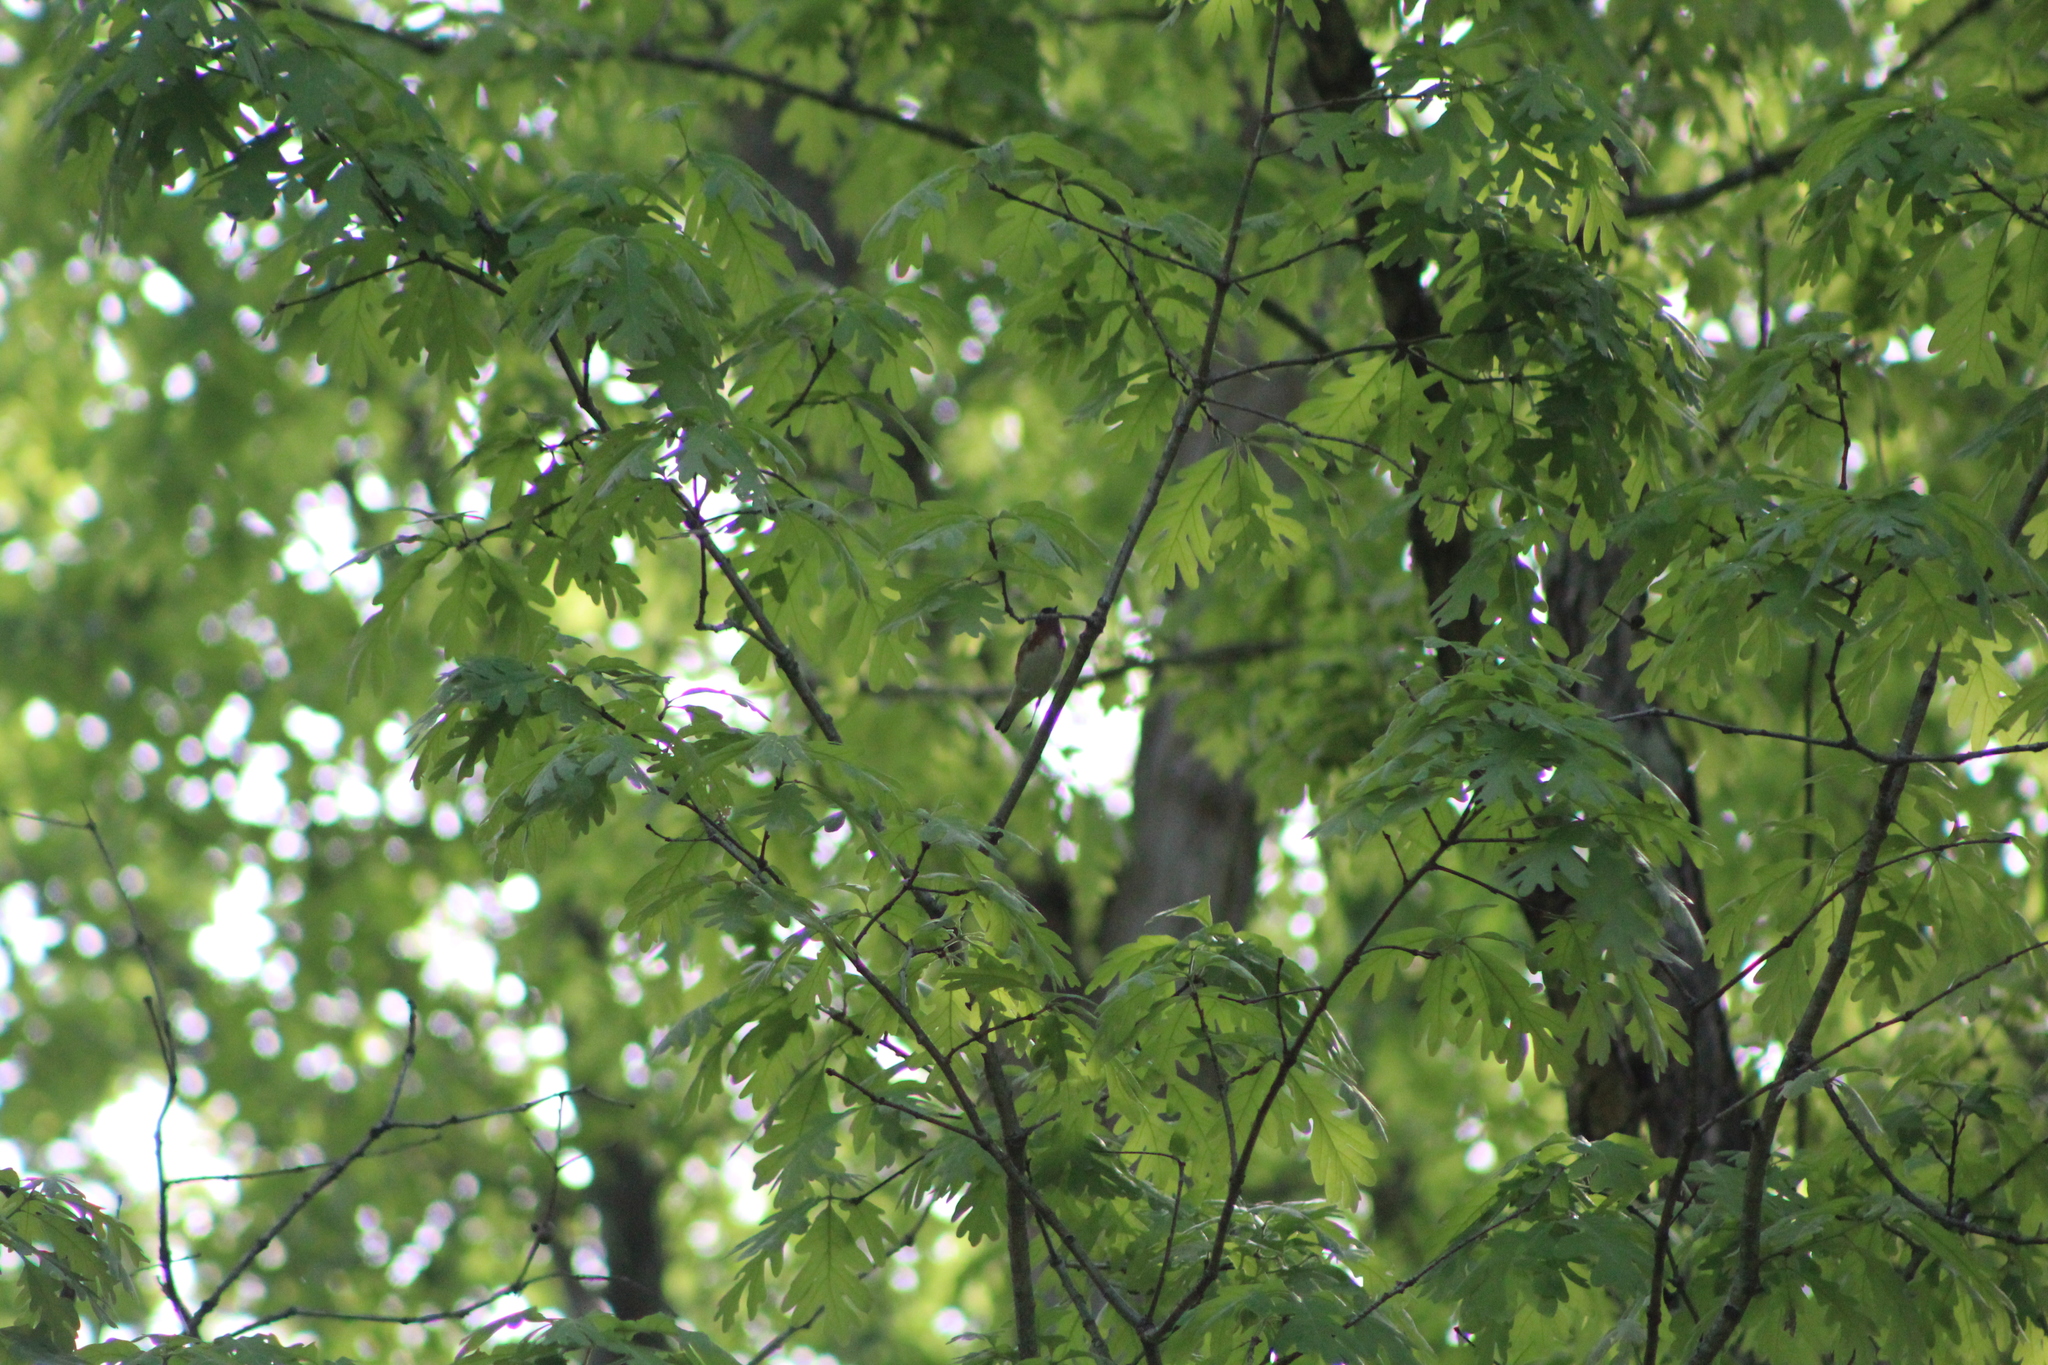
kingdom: Animalia
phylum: Chordata
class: Aves
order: Passeriformes
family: Parulidae
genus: Setophaga
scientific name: Setophaga castanea
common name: Bay-breasted warbler
